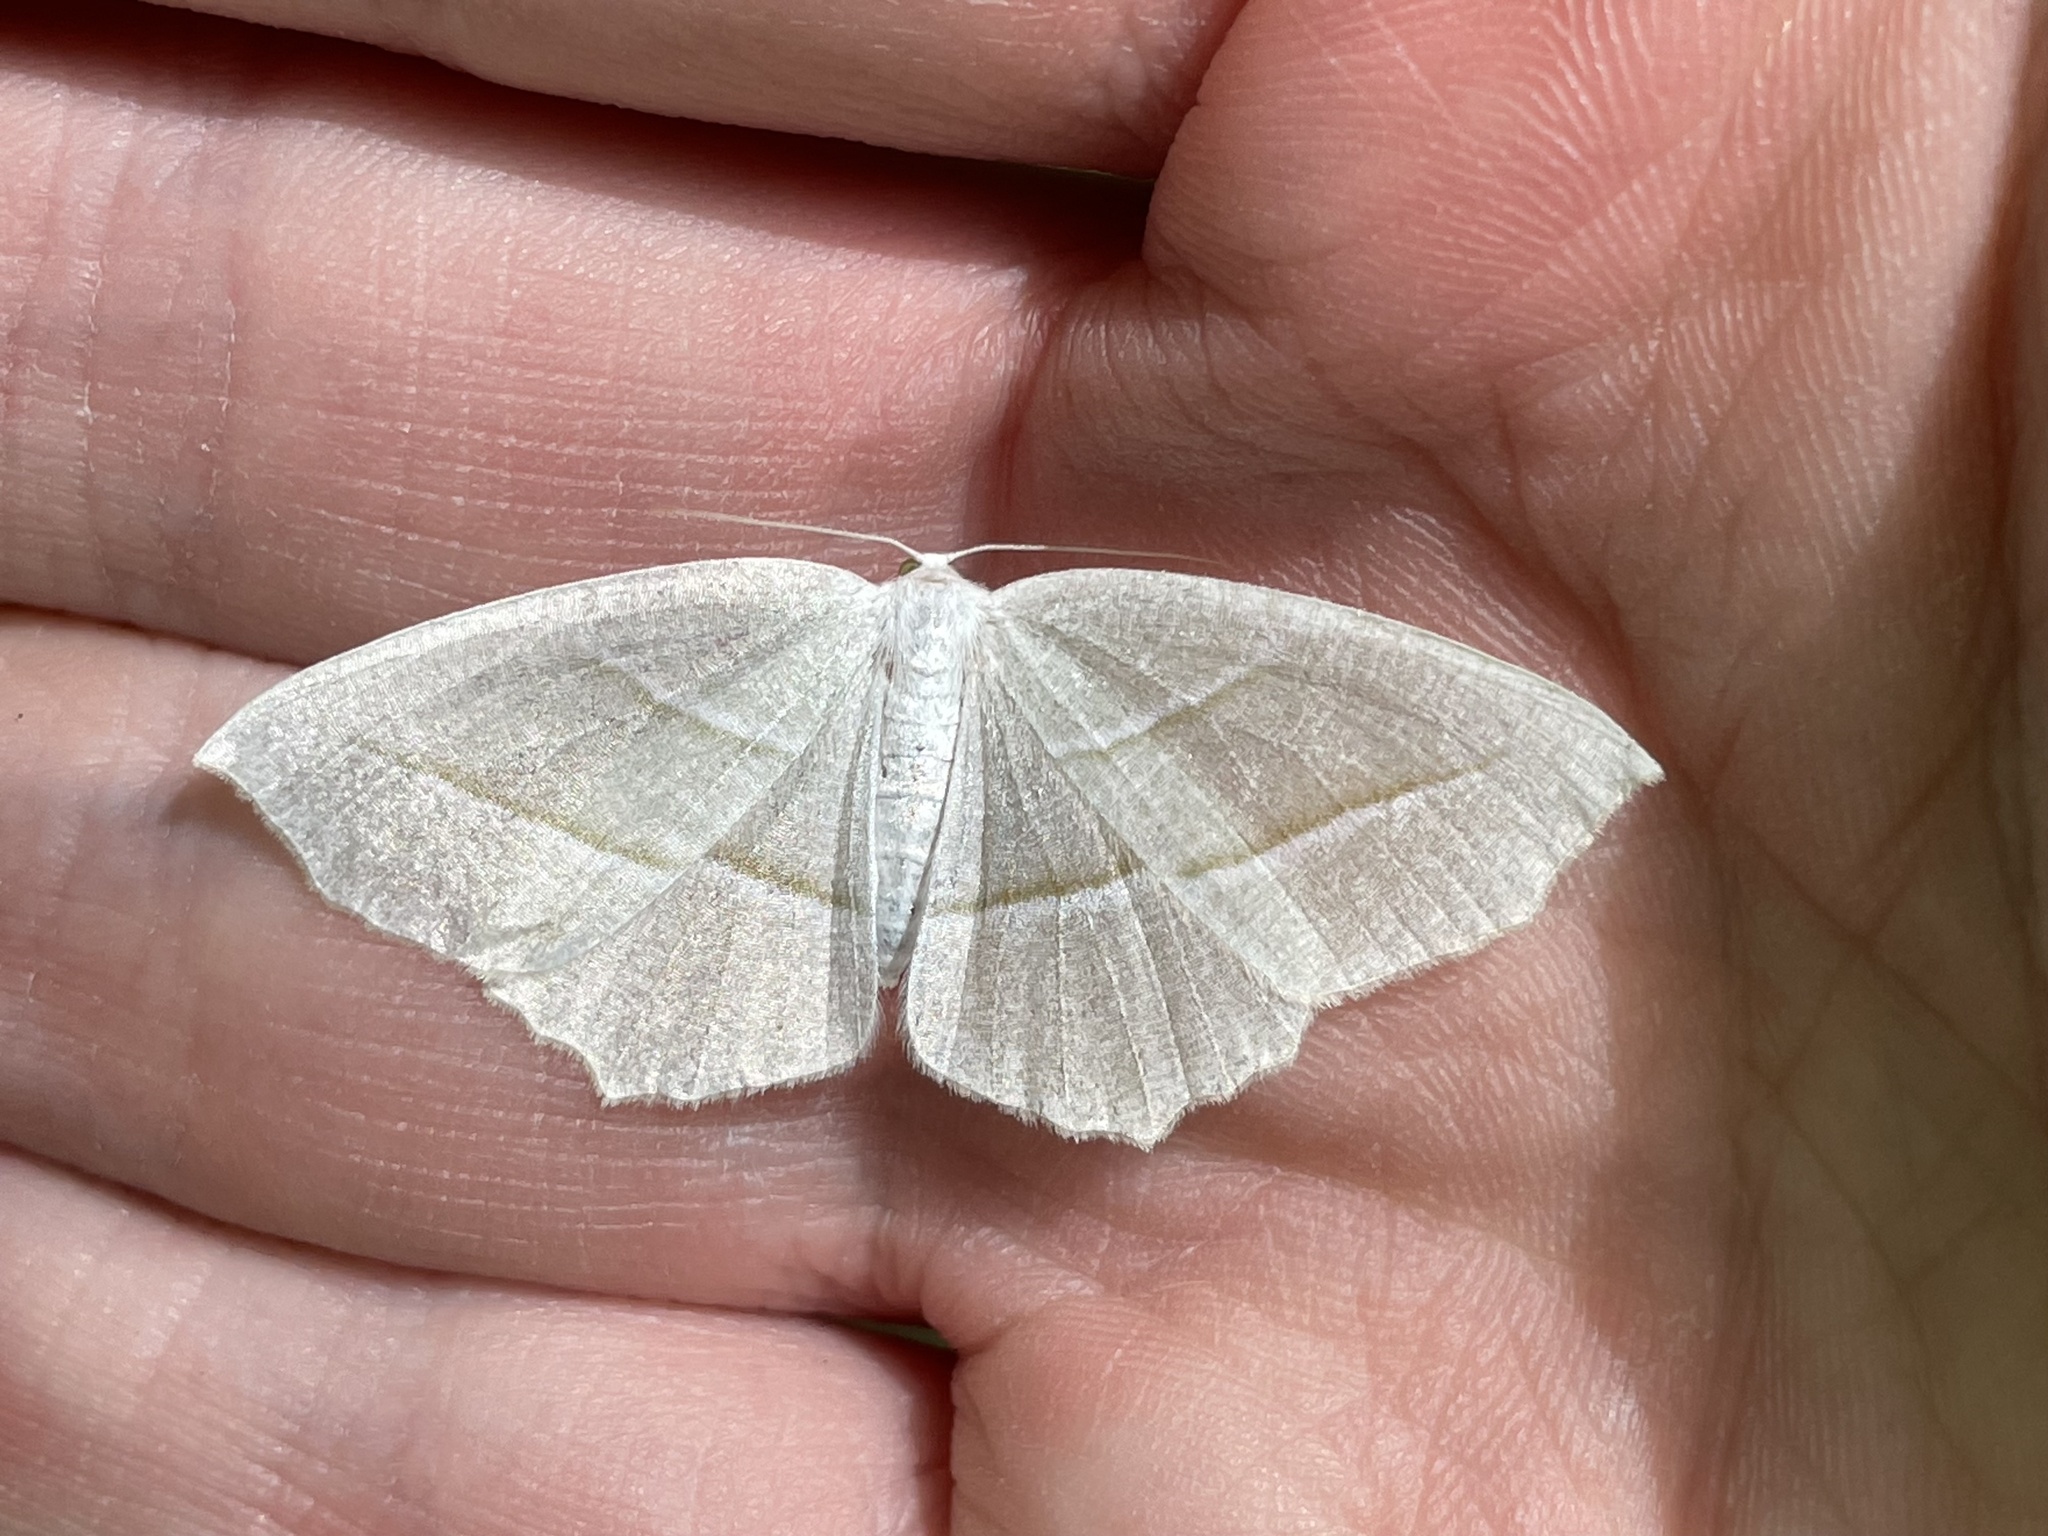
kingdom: Animalia
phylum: Arthropoda
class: Insecta
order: Lepidoptera
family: Geometridae
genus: Campaea
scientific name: Campaea perlata
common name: Fringed looper
